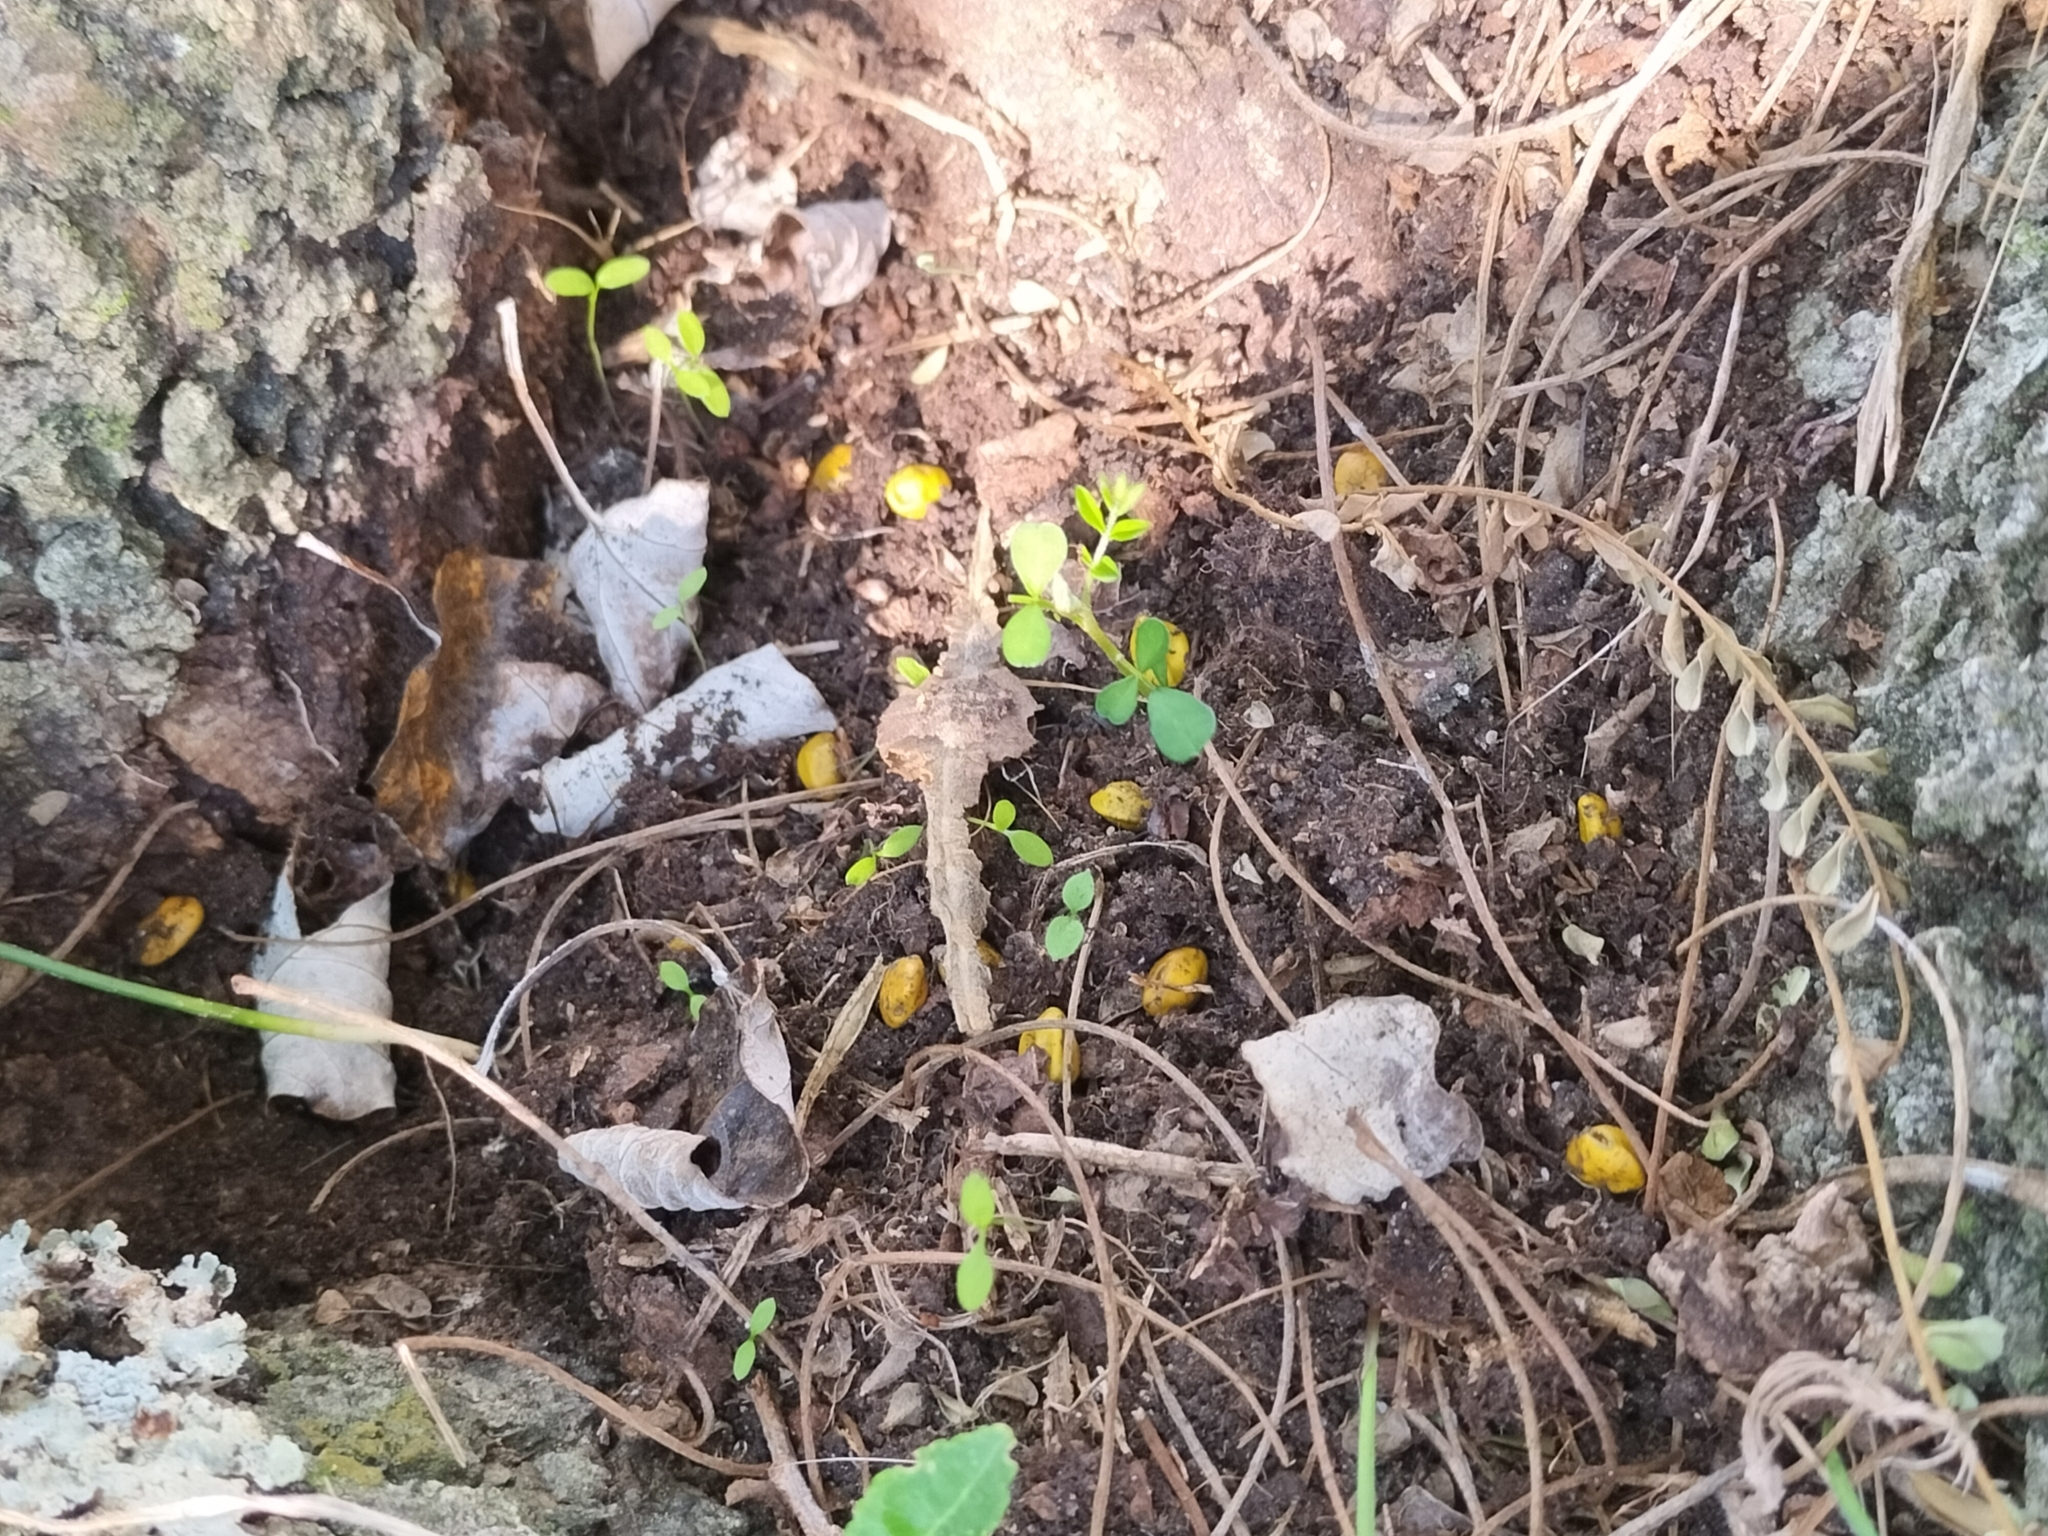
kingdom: Plantae
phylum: Tracheophyta
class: Magnoliopsida
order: Fabales
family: Fabaceae
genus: Sophora
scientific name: Sophora microphylla
